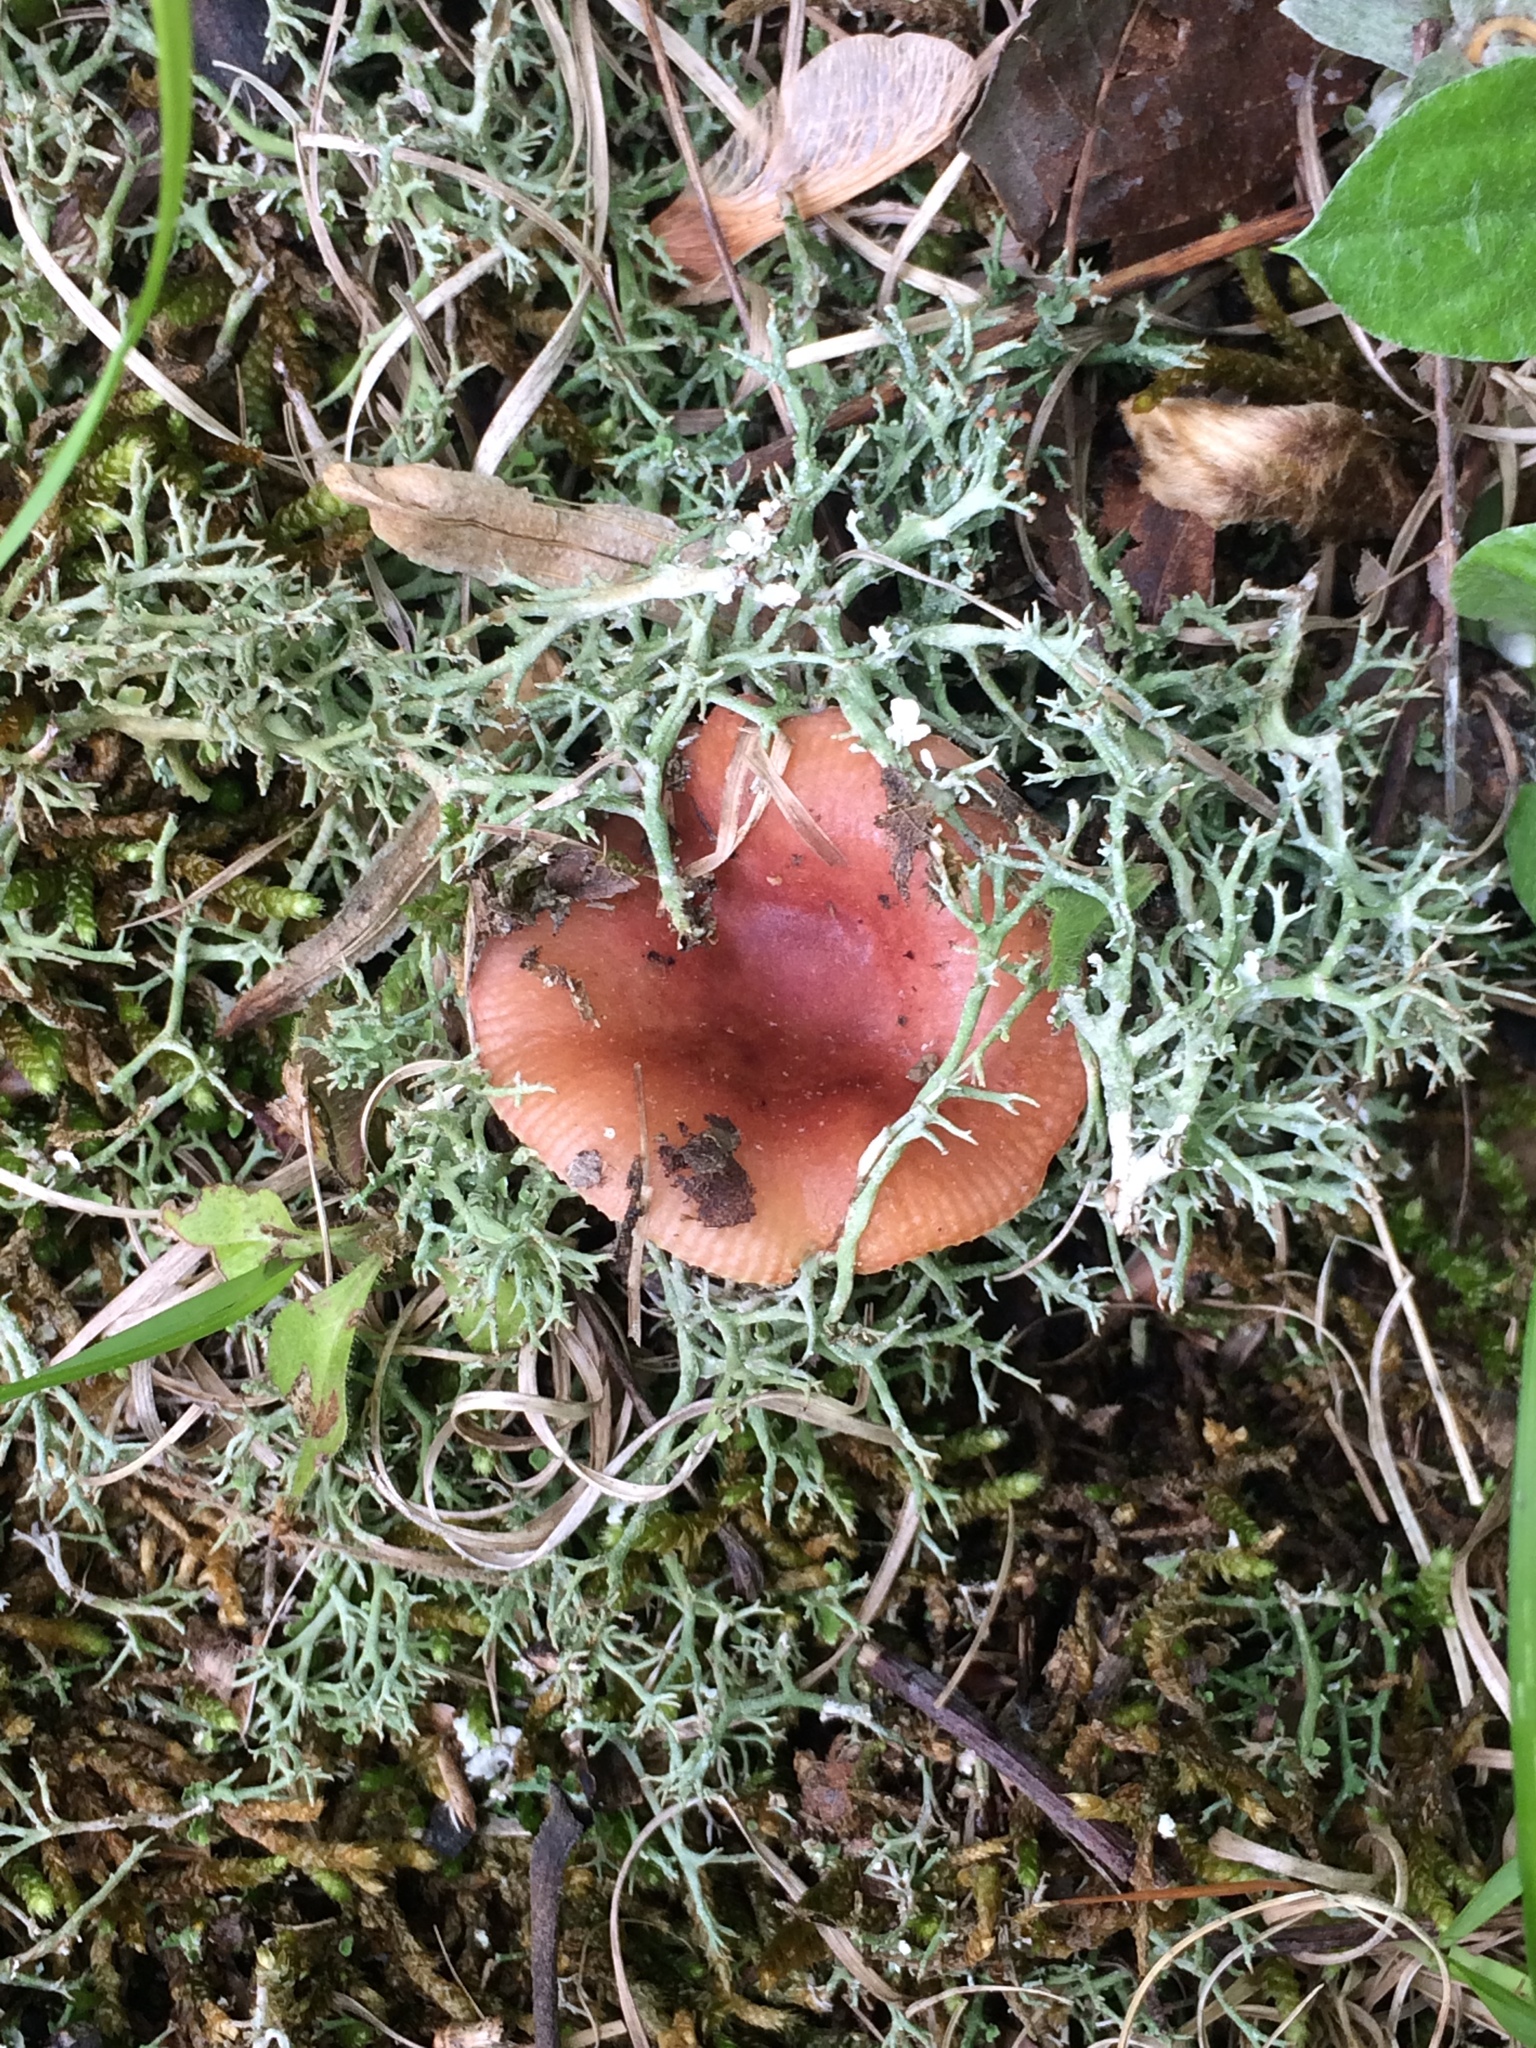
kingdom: Fungi
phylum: Basidiomycota
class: Agaricomycetes
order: Russulales
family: Russulaceae
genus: Russula
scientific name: Russula puellaris
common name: Yellowing brittlegill
